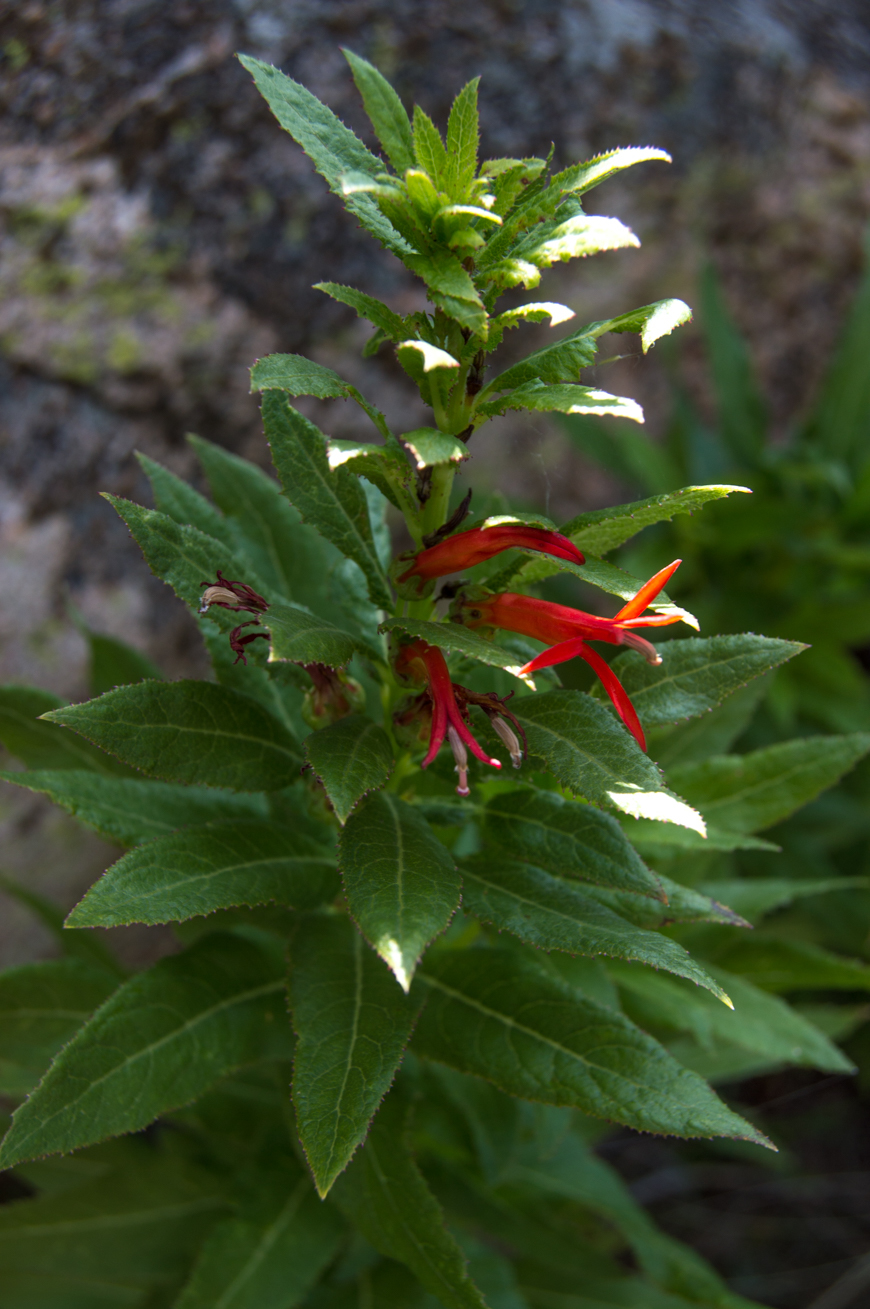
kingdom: Plantae
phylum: Tracheophyta
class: Magnoliopsida
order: Asterales
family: Campanulaceae
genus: Siphocampylus
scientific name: Siphocampylus foliosus
